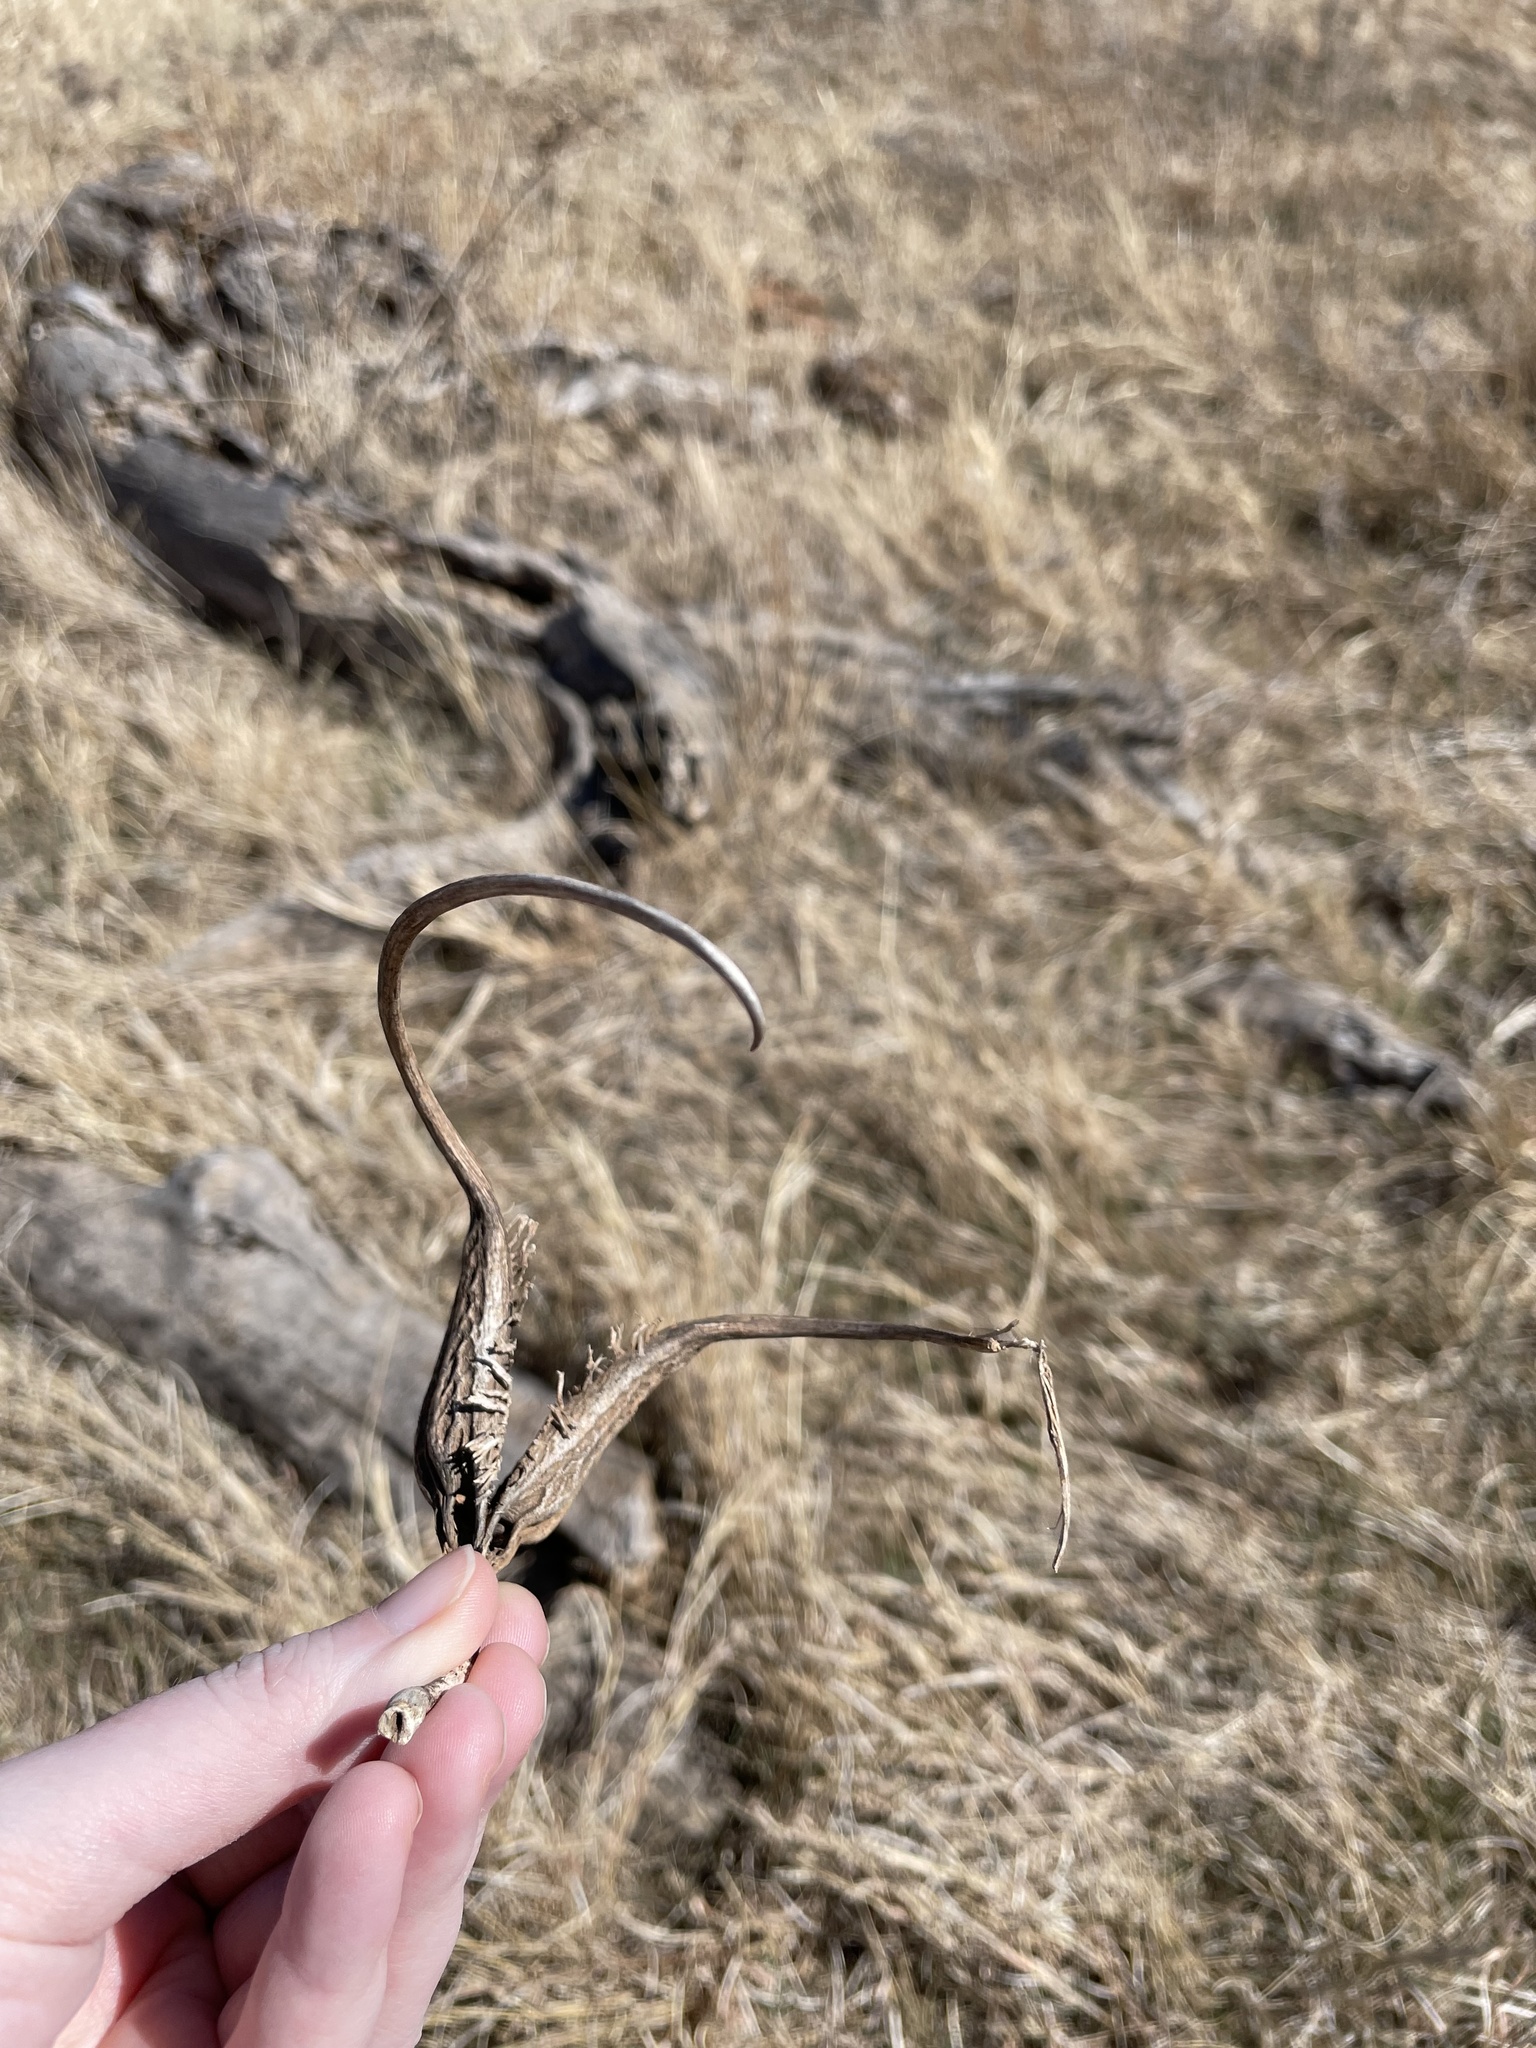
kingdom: Plantae
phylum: Tracheophyta
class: Magnoliopsida
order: Lamiales
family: Martyniaceae
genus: Proboscidea
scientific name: Proboscidea louisianica
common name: Elephant tusks
